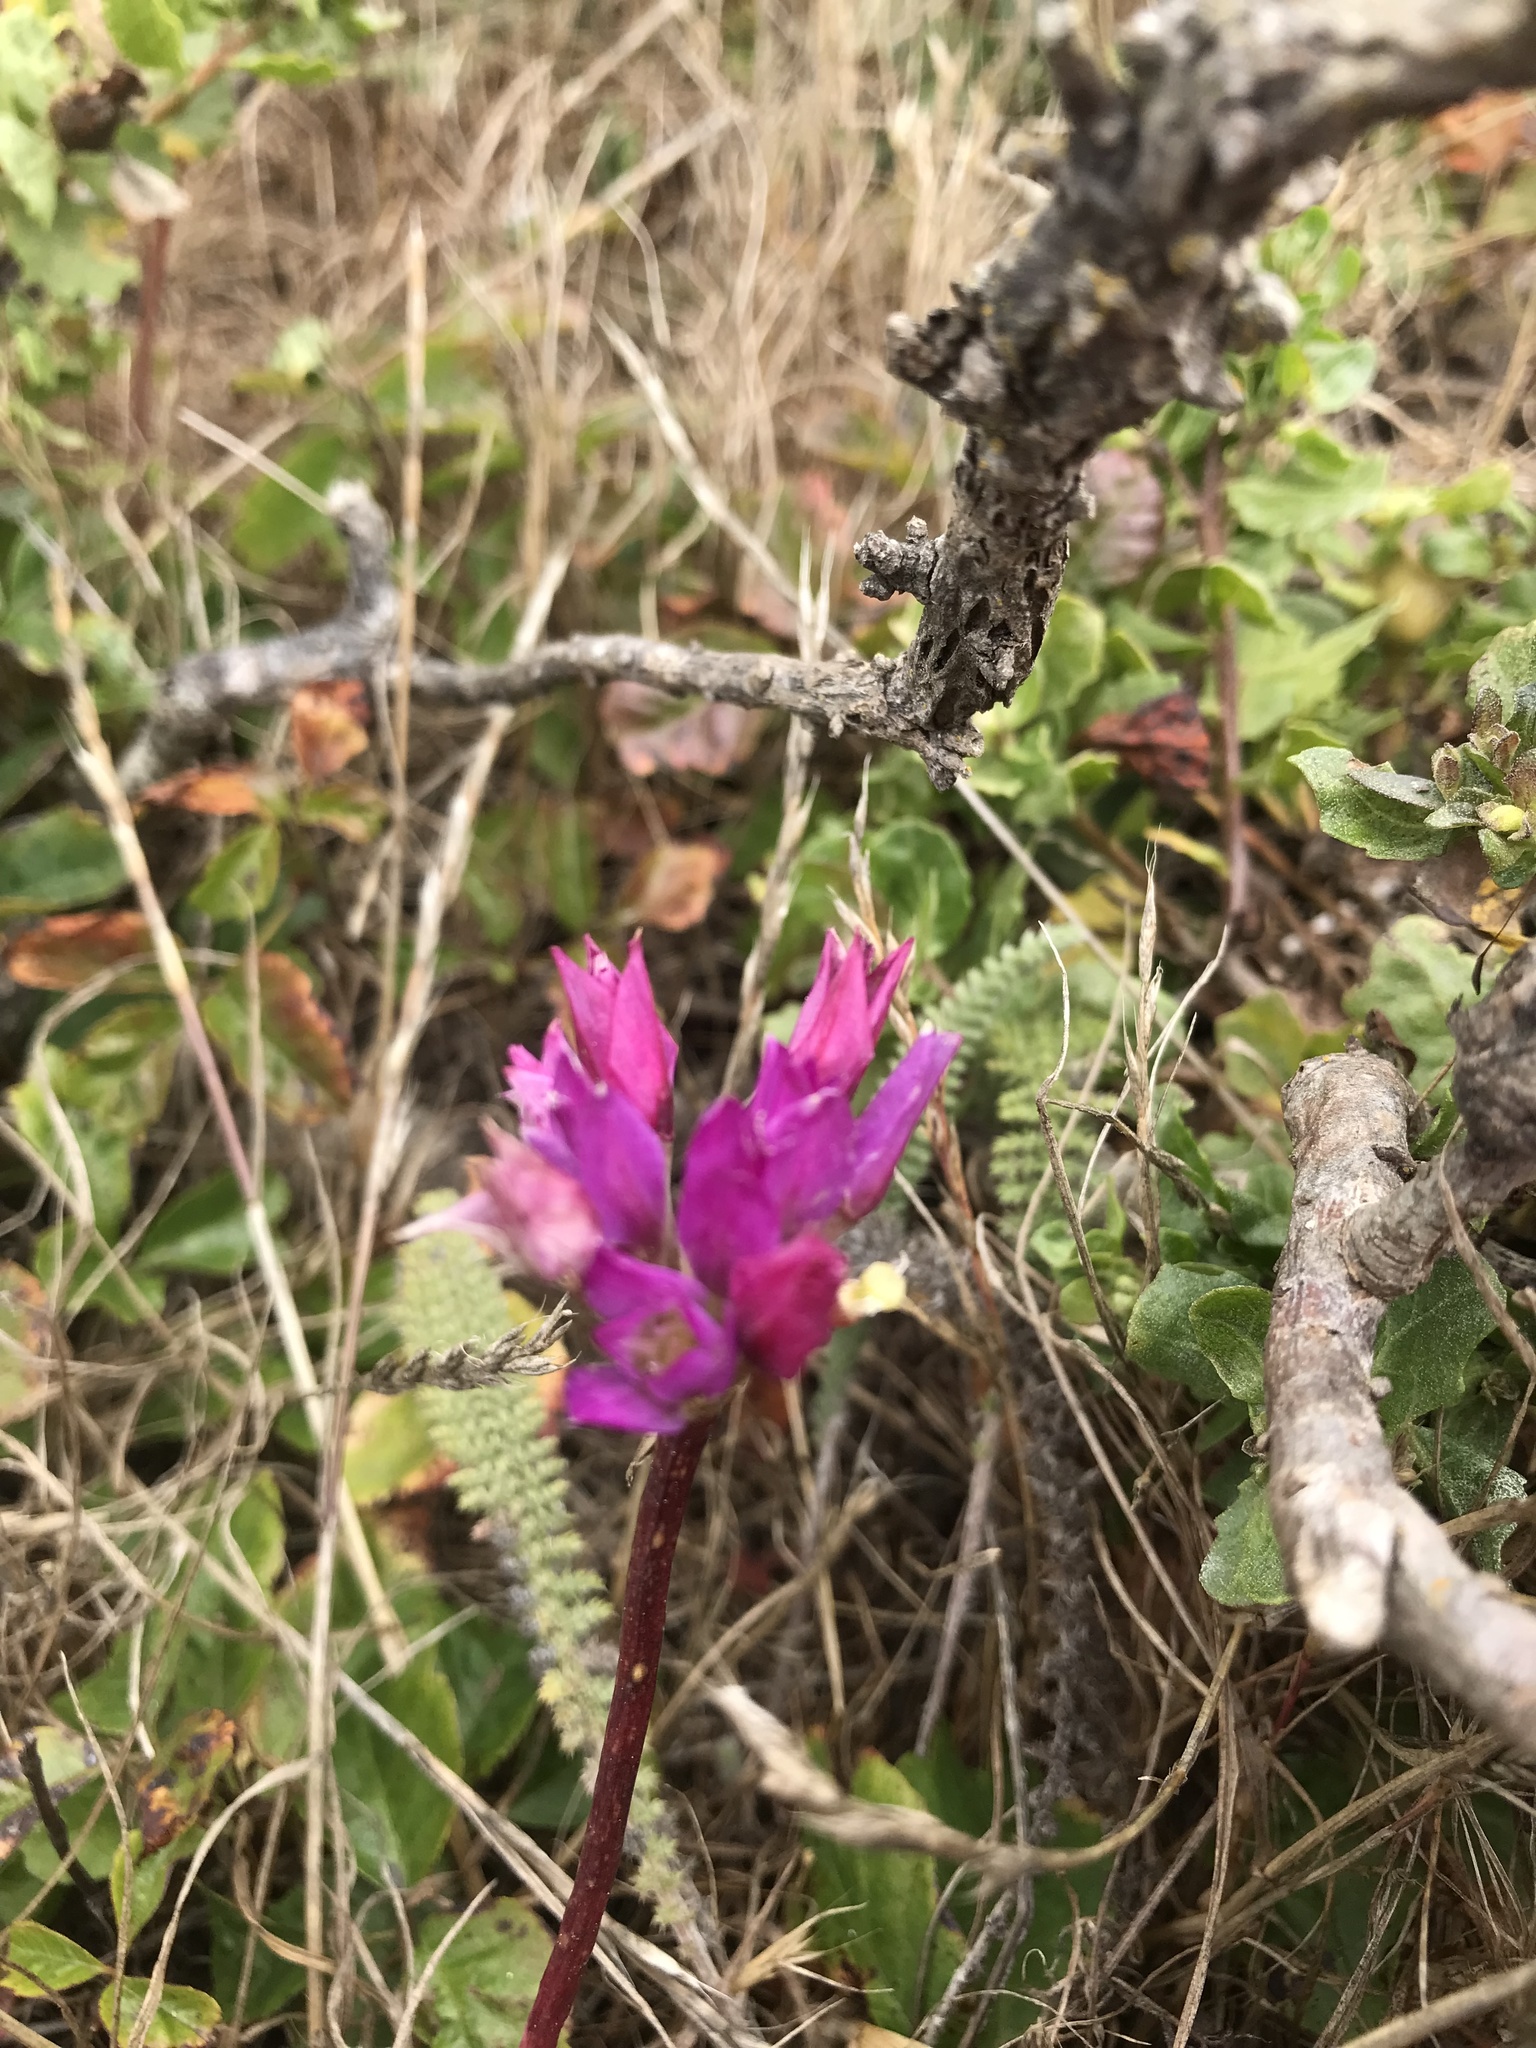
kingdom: Plantae
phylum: Tracheophyta
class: Liliopsida
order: Asparagales
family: Amaryllidaceae
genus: Allium
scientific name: Allium dichlamydeum
